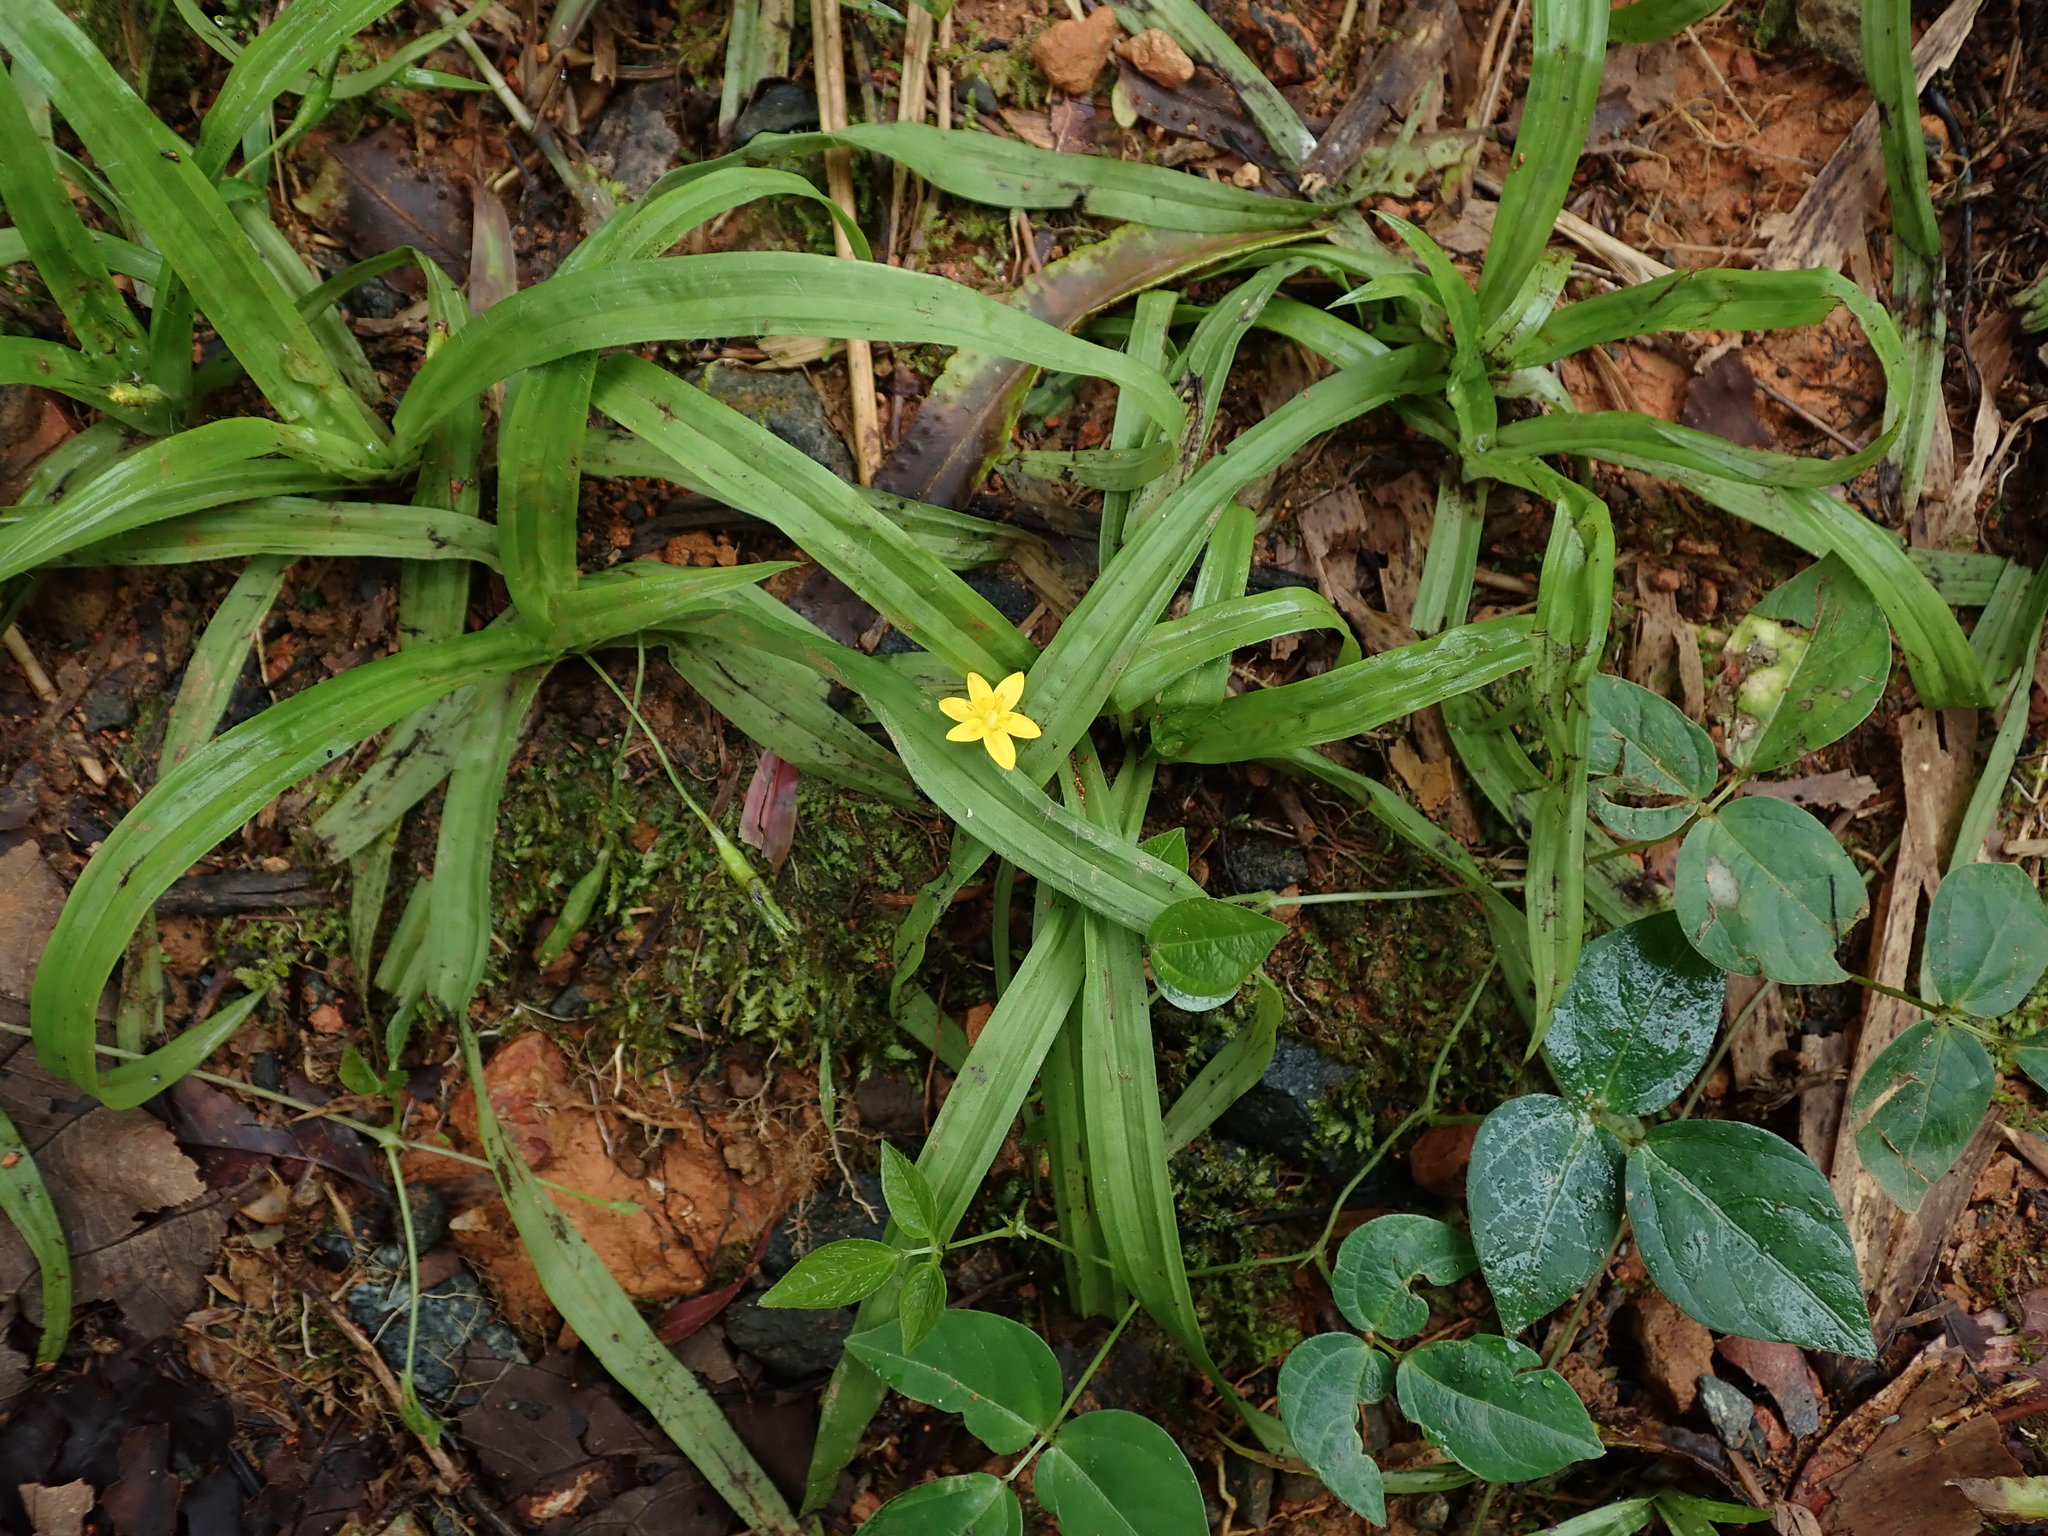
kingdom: Plantae
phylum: Tracheophyta
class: Liliopsida
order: Asparagales
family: Hypoxidaceae
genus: Hypoxis
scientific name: Hypoxis decumbens
